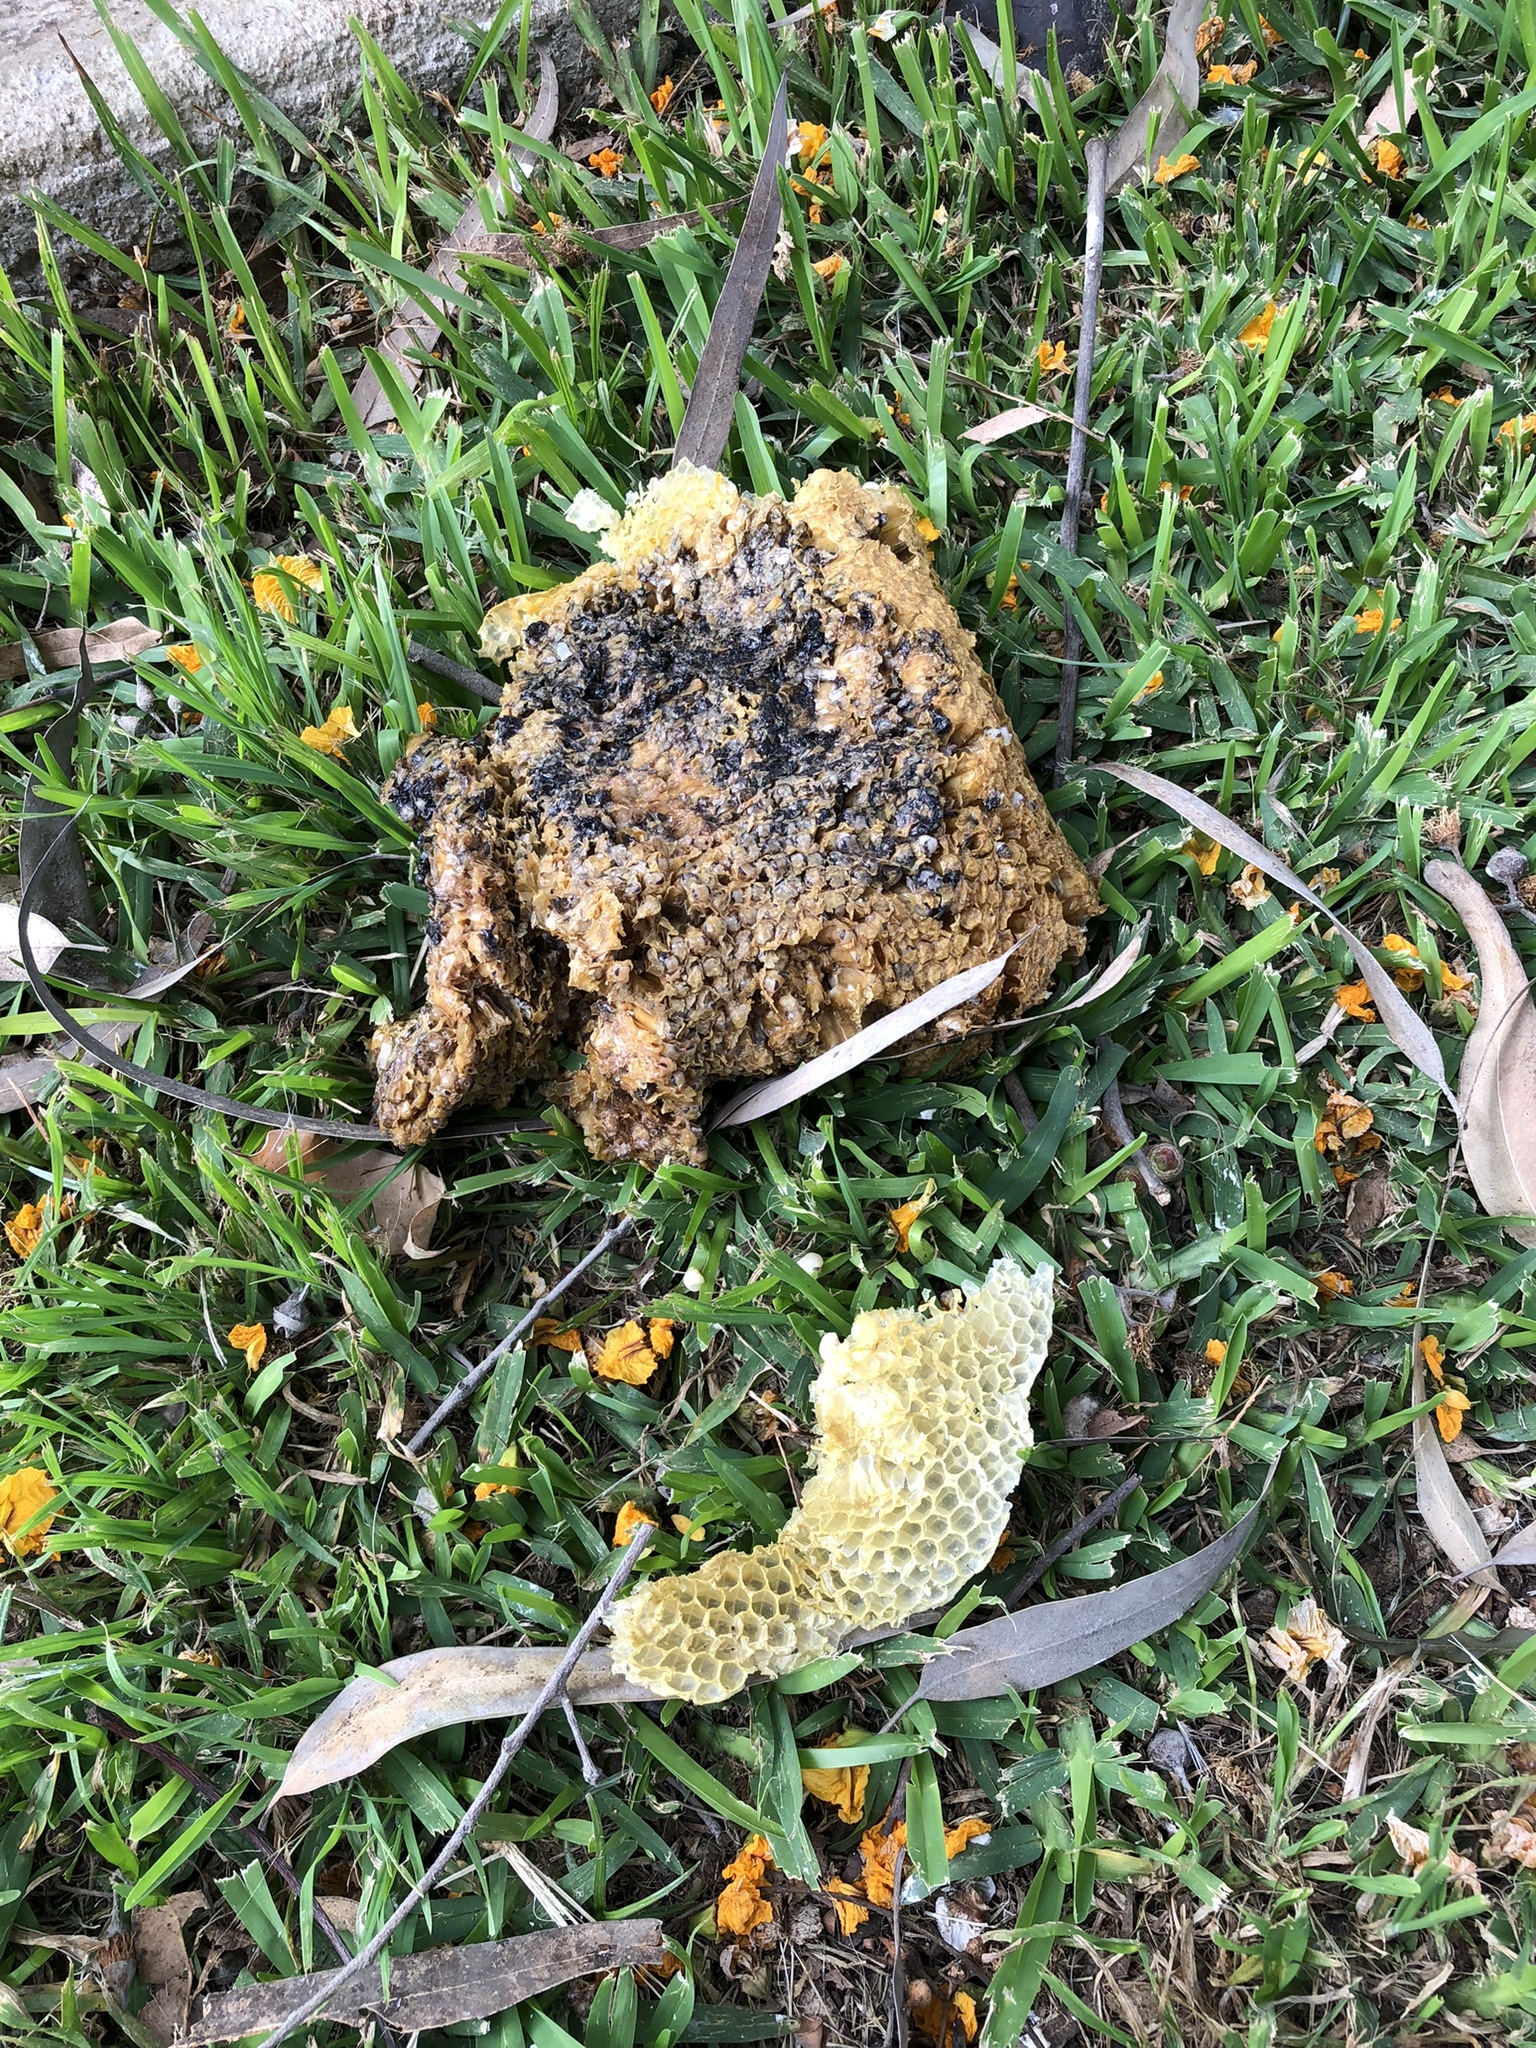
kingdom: Animalia
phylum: Arthropoda
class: Insecta
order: Hymenoptera
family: Apidae
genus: Apis
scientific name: Apis mellifera
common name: Honey bee
